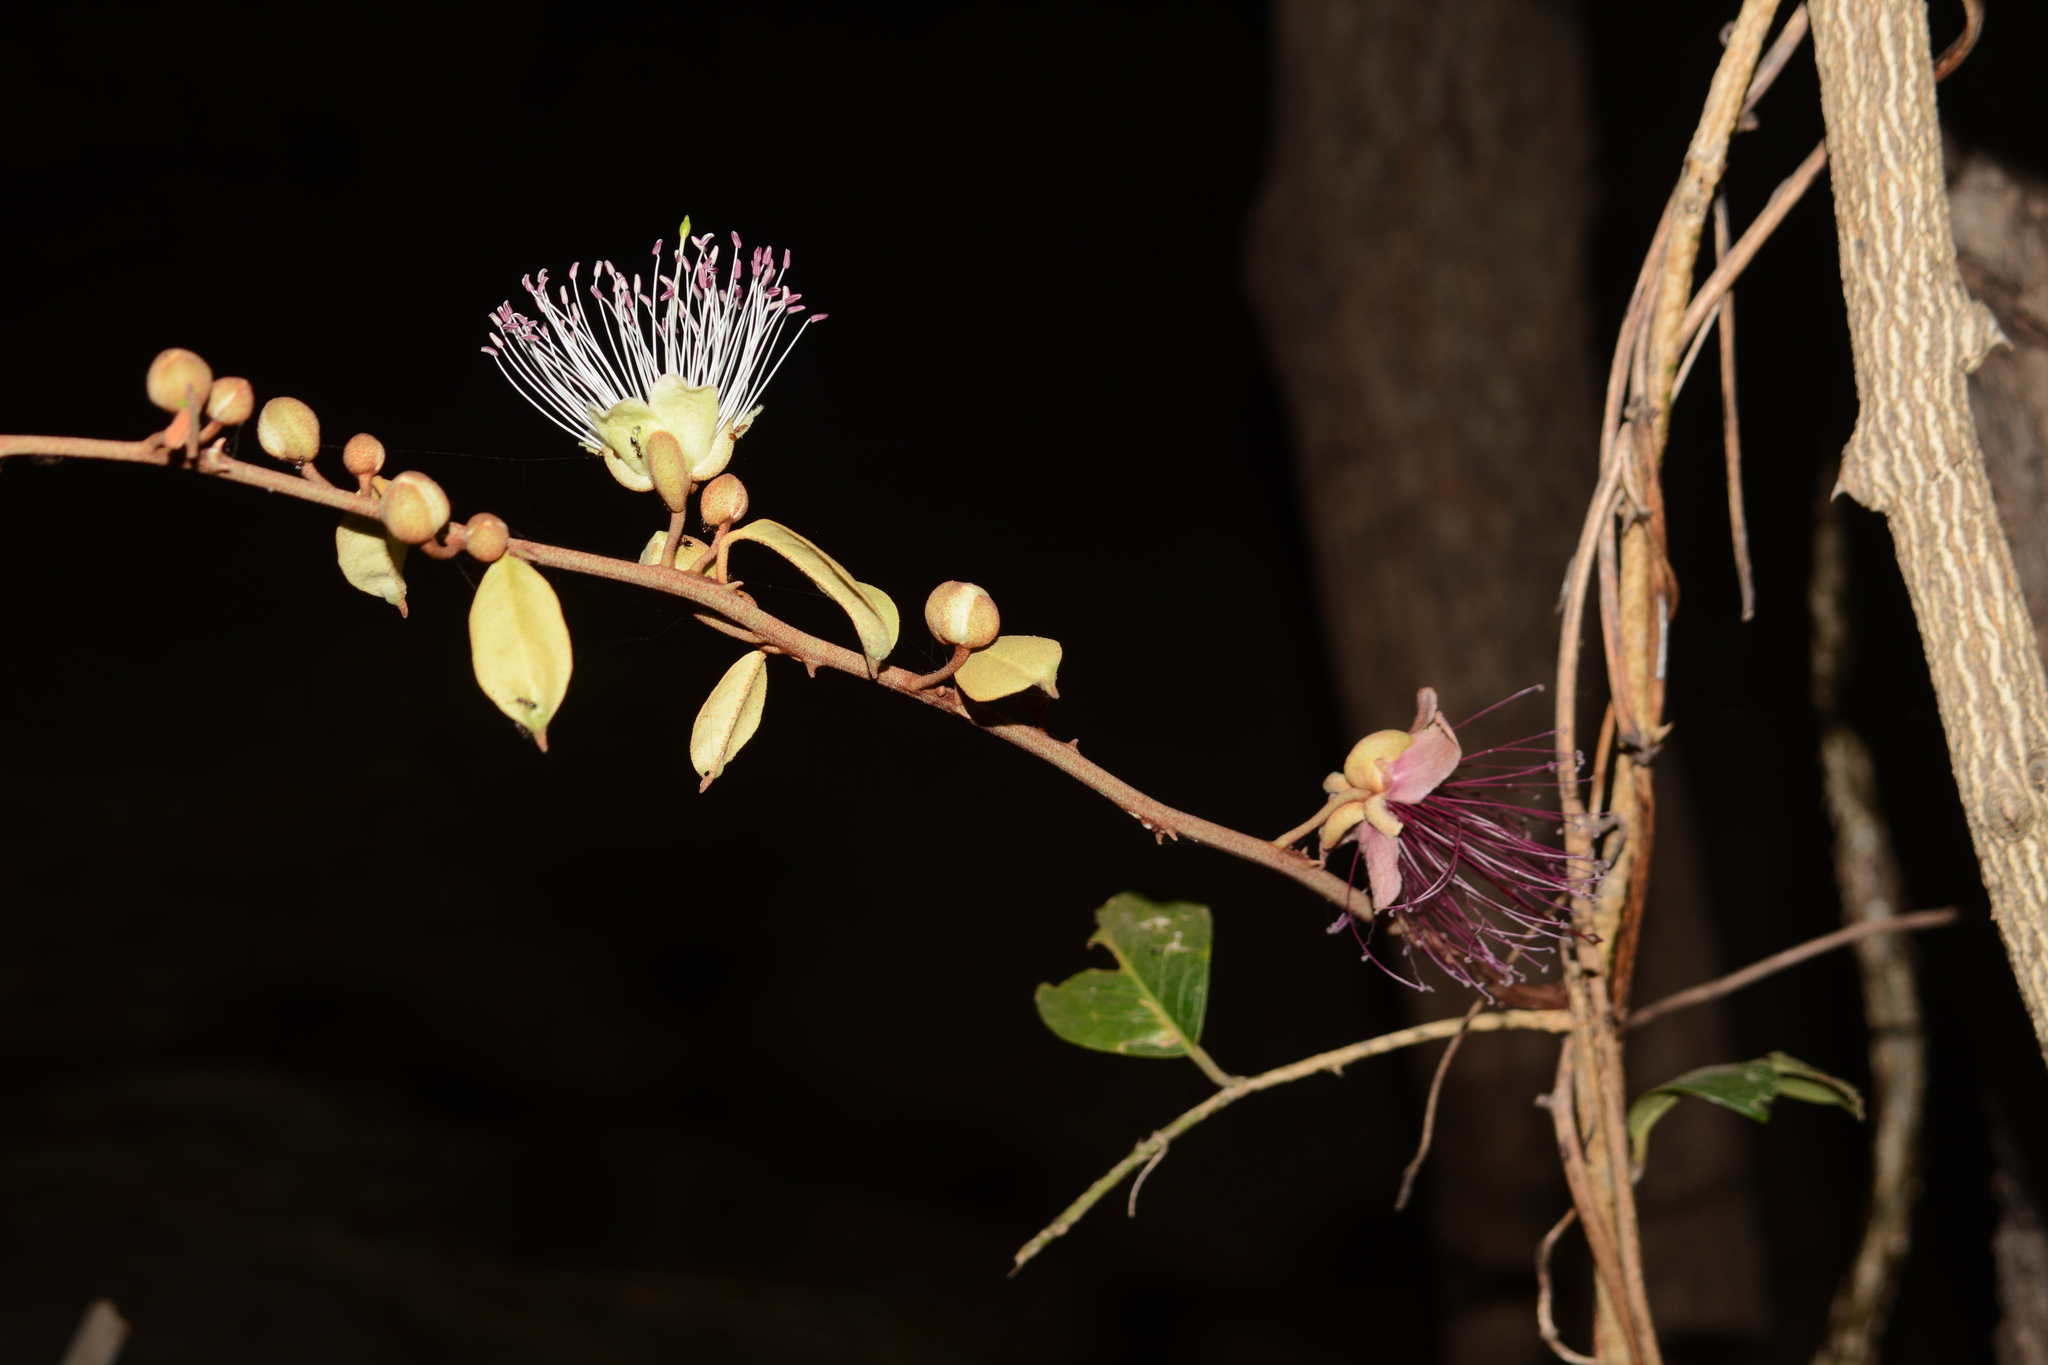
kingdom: Plantae
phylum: Tracheophyta
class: Magnoliopsida
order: Brassicales
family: Capparaceae
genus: Capparis
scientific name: Capparis zeylanica
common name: Ceylon caper
